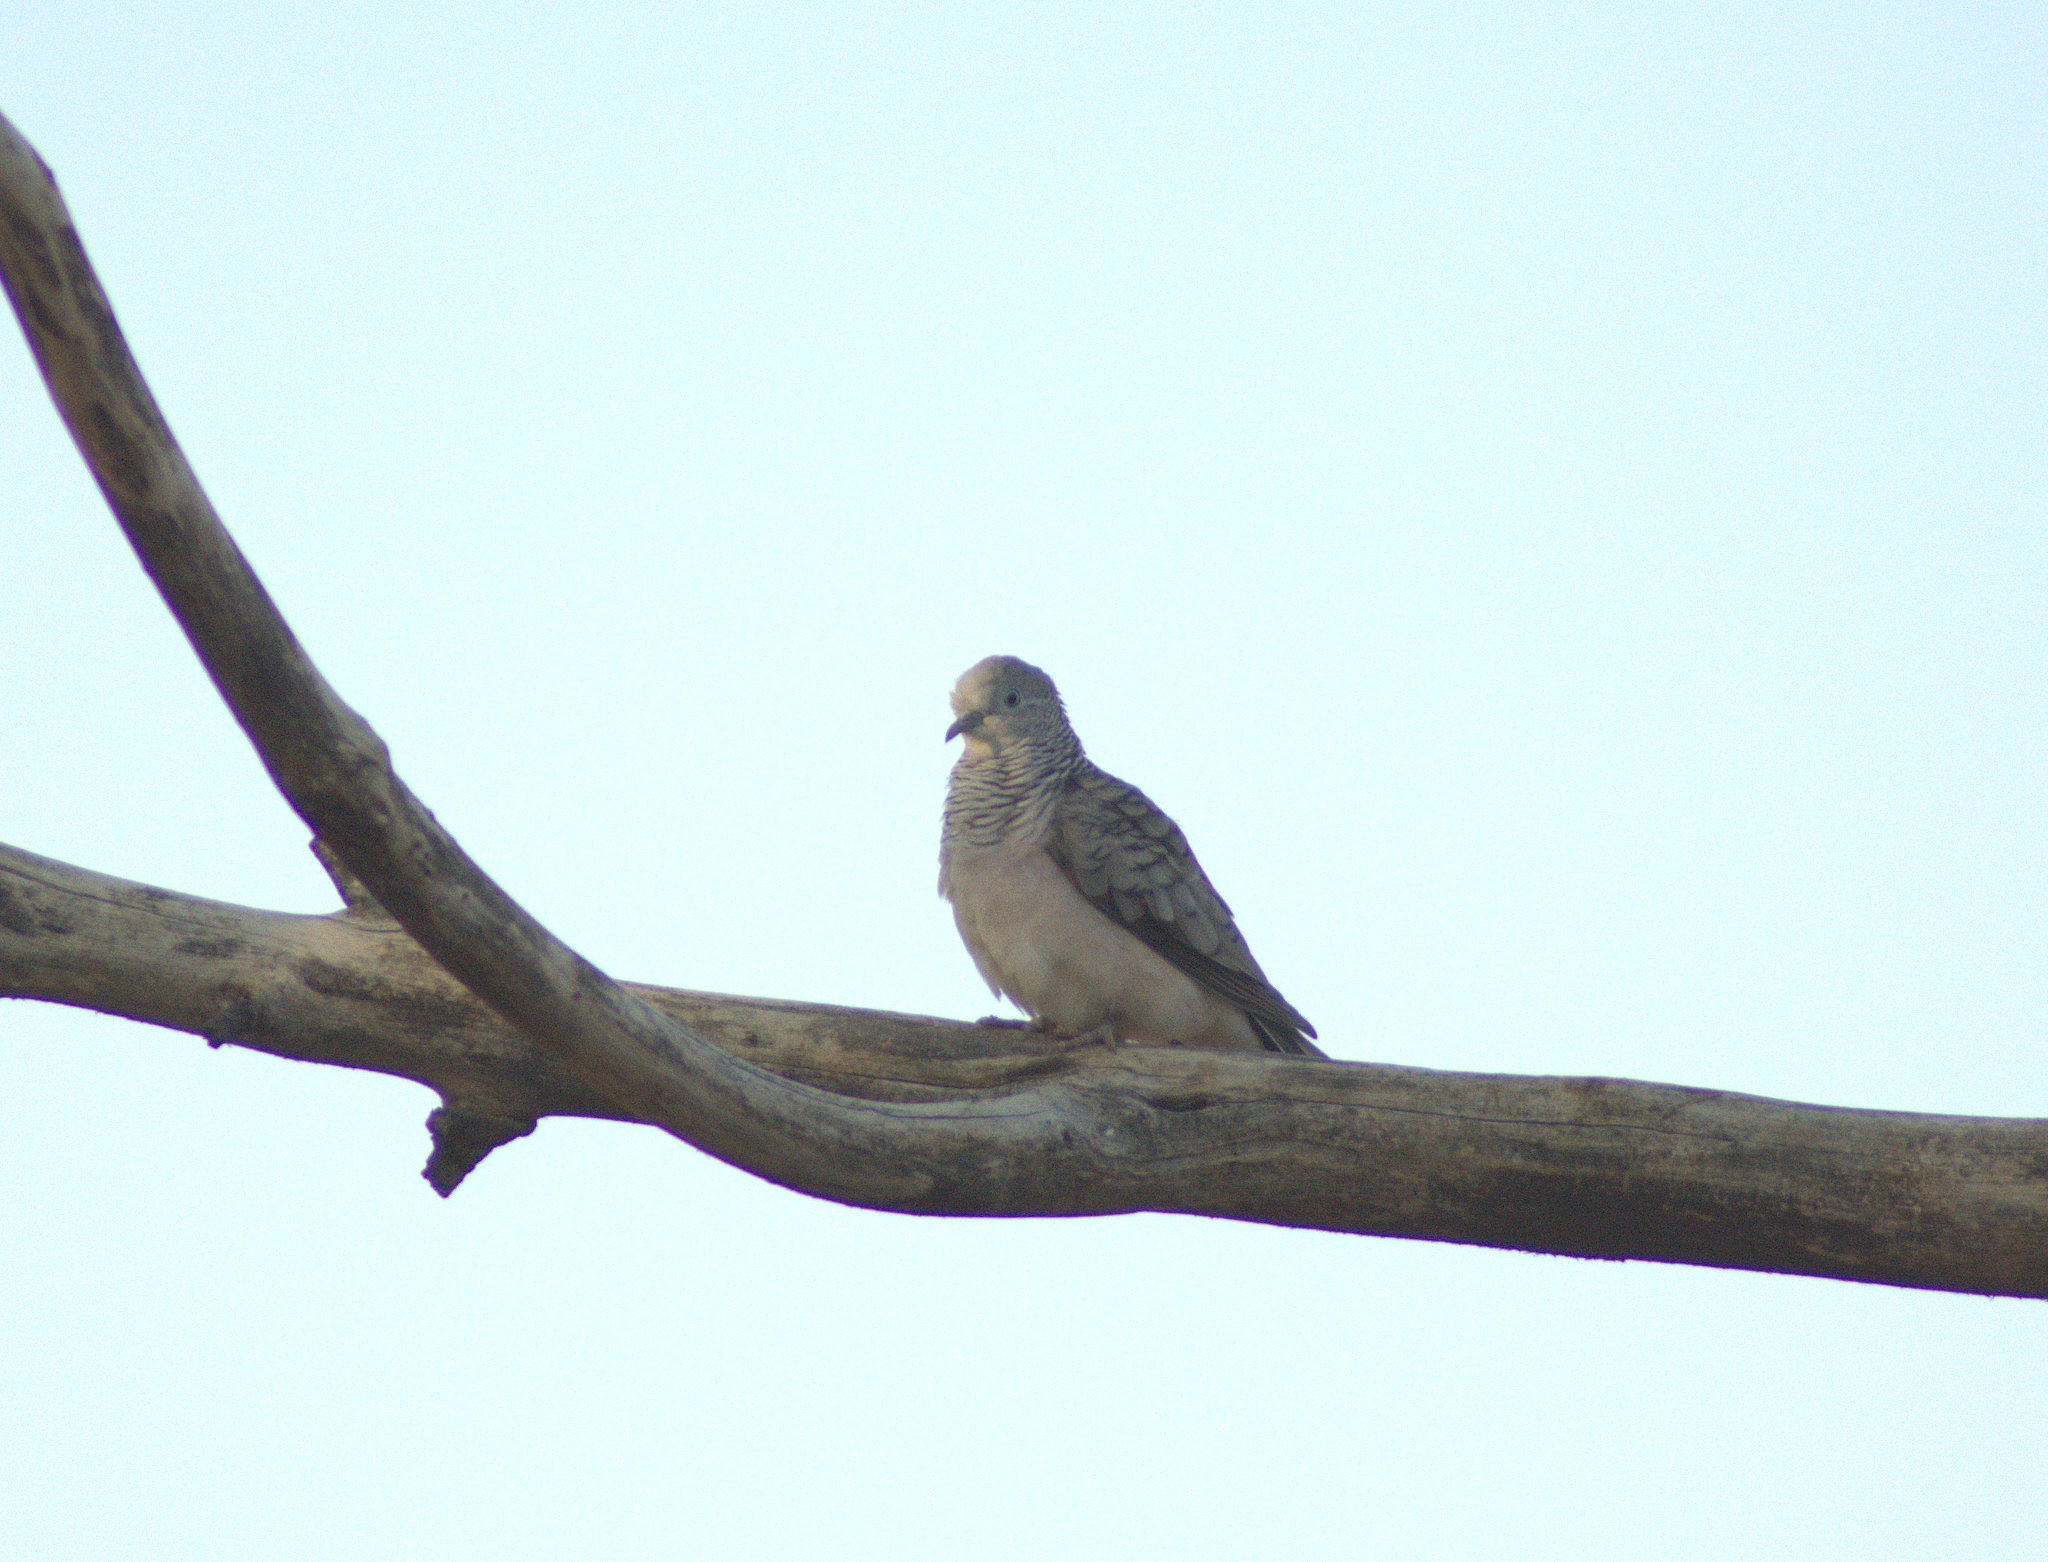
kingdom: Animalia
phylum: Chordata
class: Aves
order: Columbiformes
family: Columbidae
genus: Geopelia
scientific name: Geopelia placida
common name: Peaceful dove
